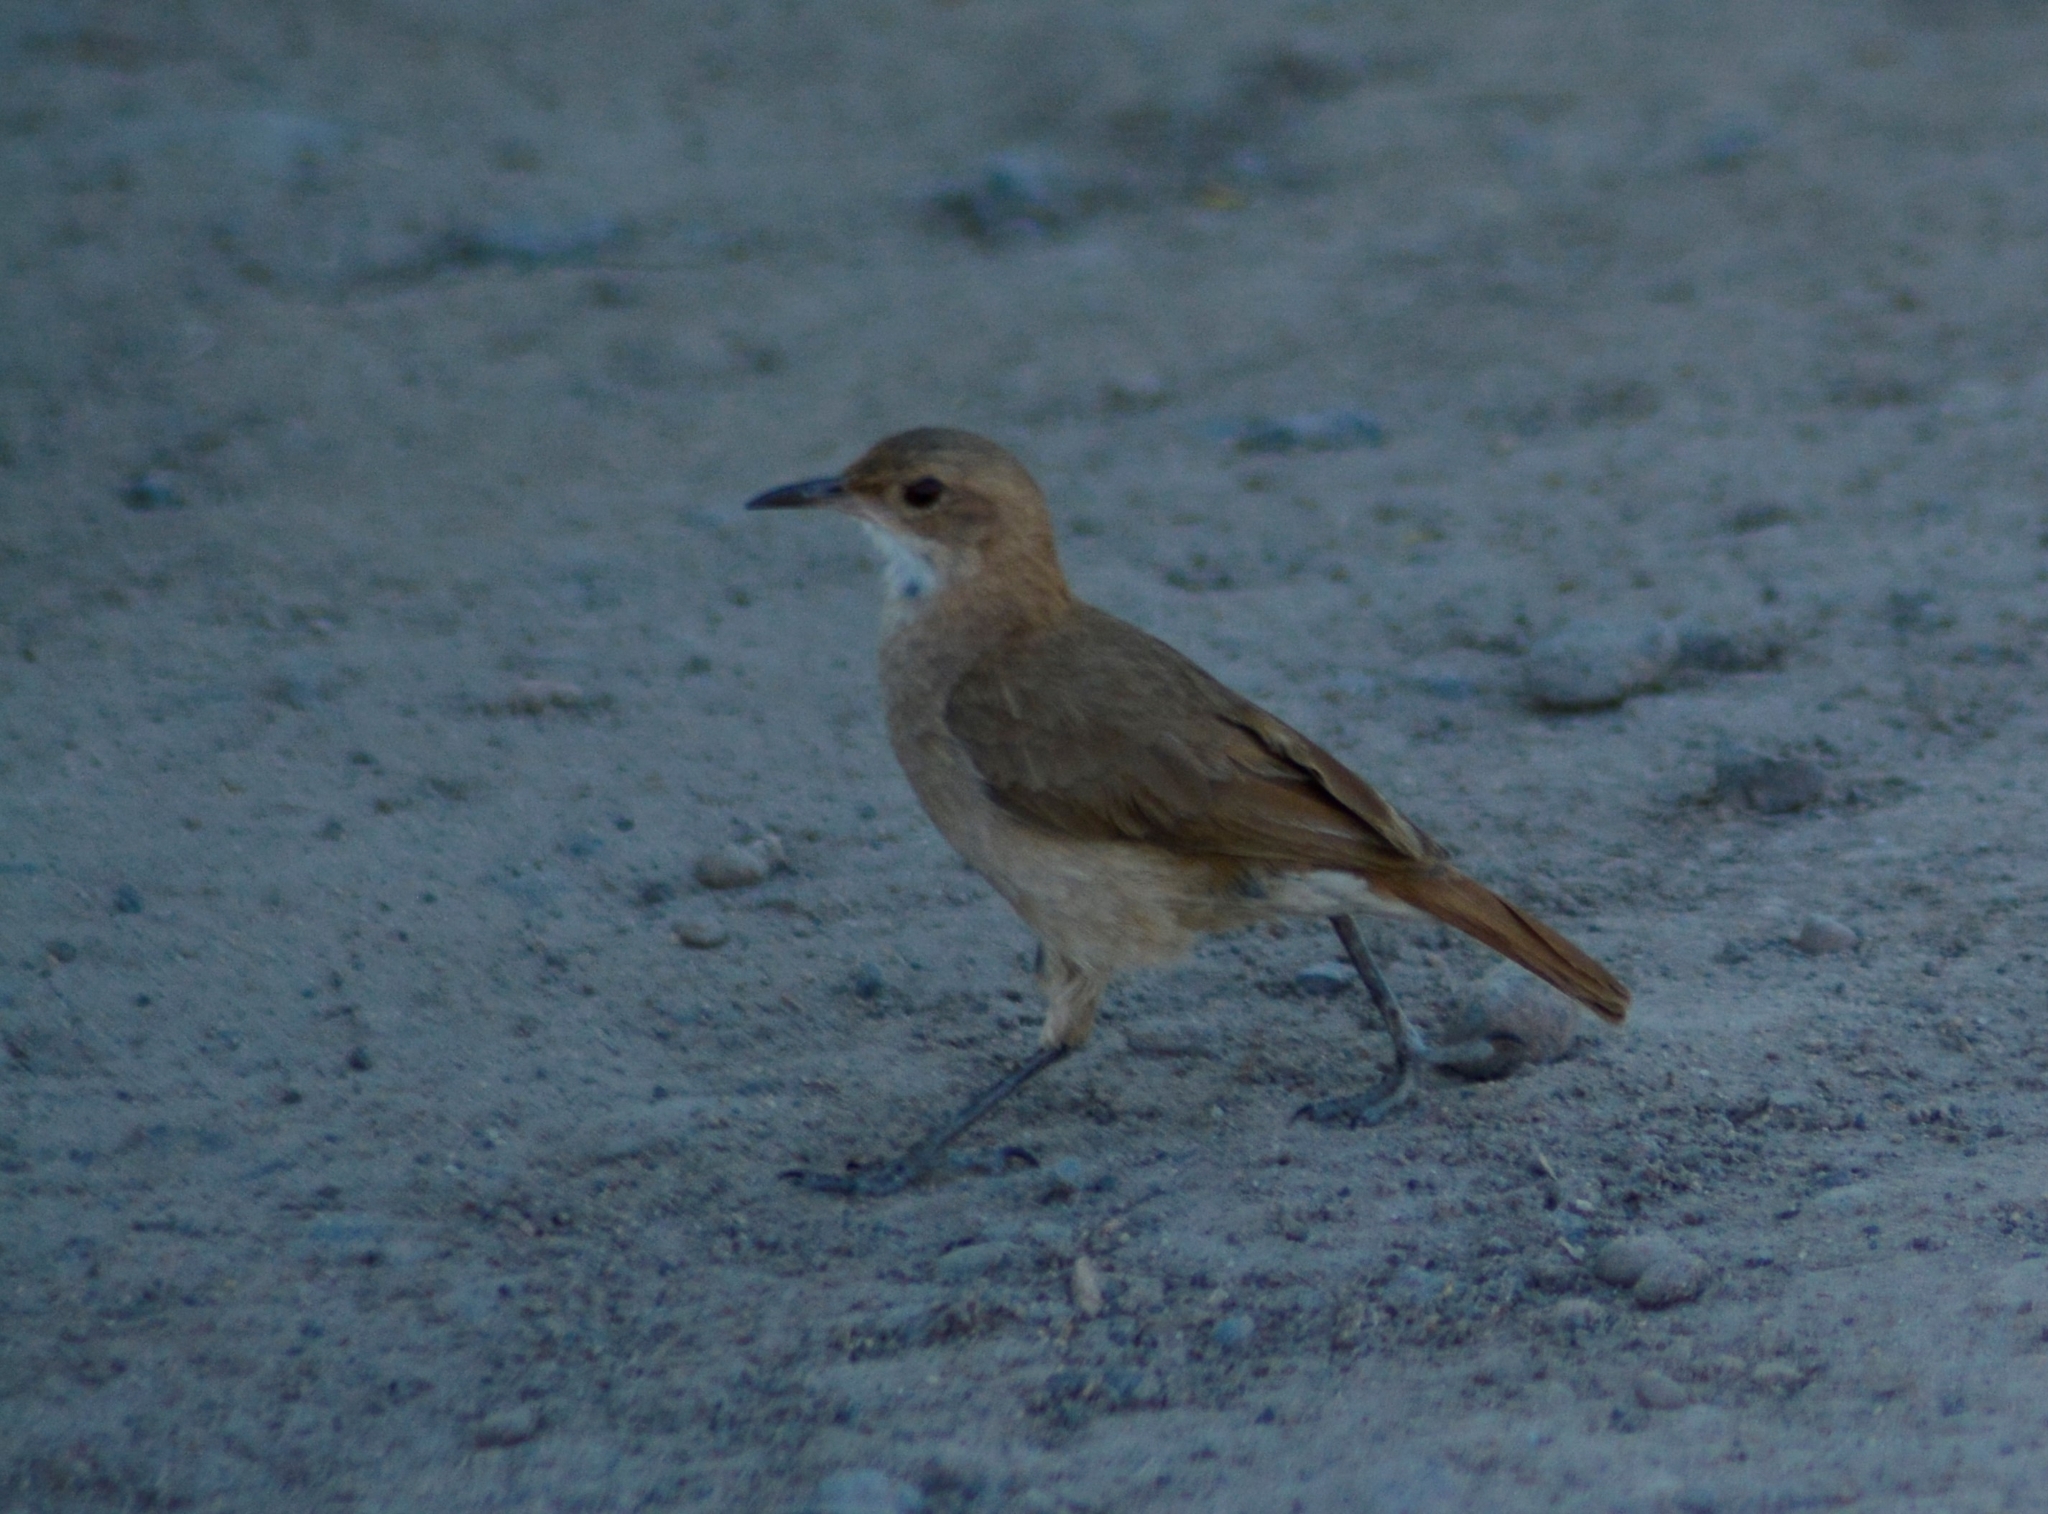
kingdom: Animalia
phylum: Chordata
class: Aves
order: Passeriformes
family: Furnariidae
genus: Furnarius
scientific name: Furnarius rufus
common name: Rufous hornero
